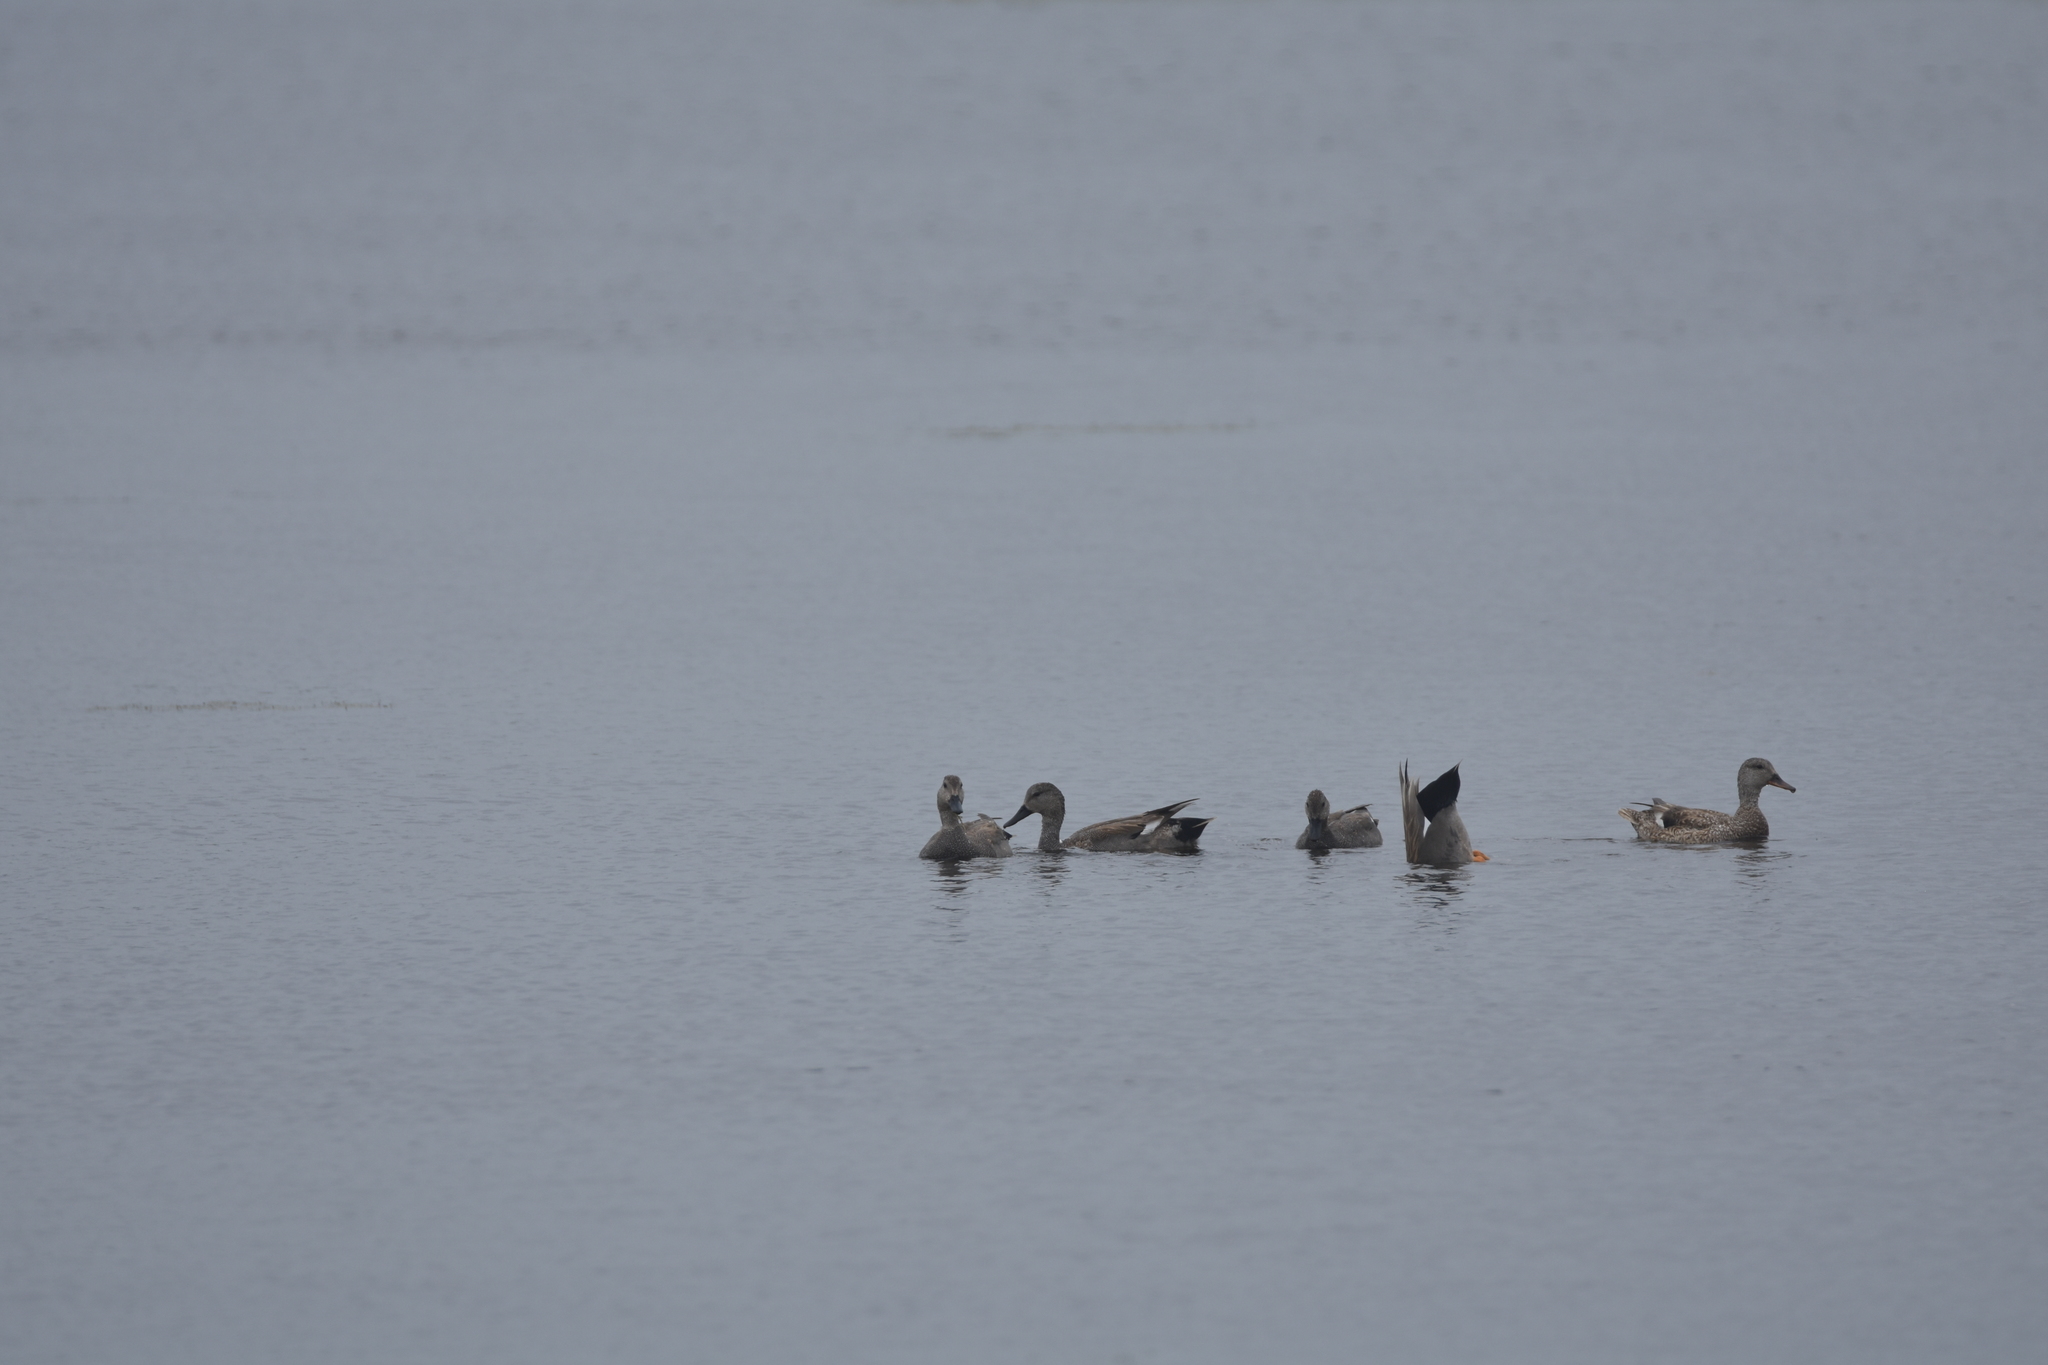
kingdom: Animalia
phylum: Chordata
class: Aves
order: Anseriformes
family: Anatidae
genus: Mareca
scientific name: Mareca strepera
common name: Gadwall
